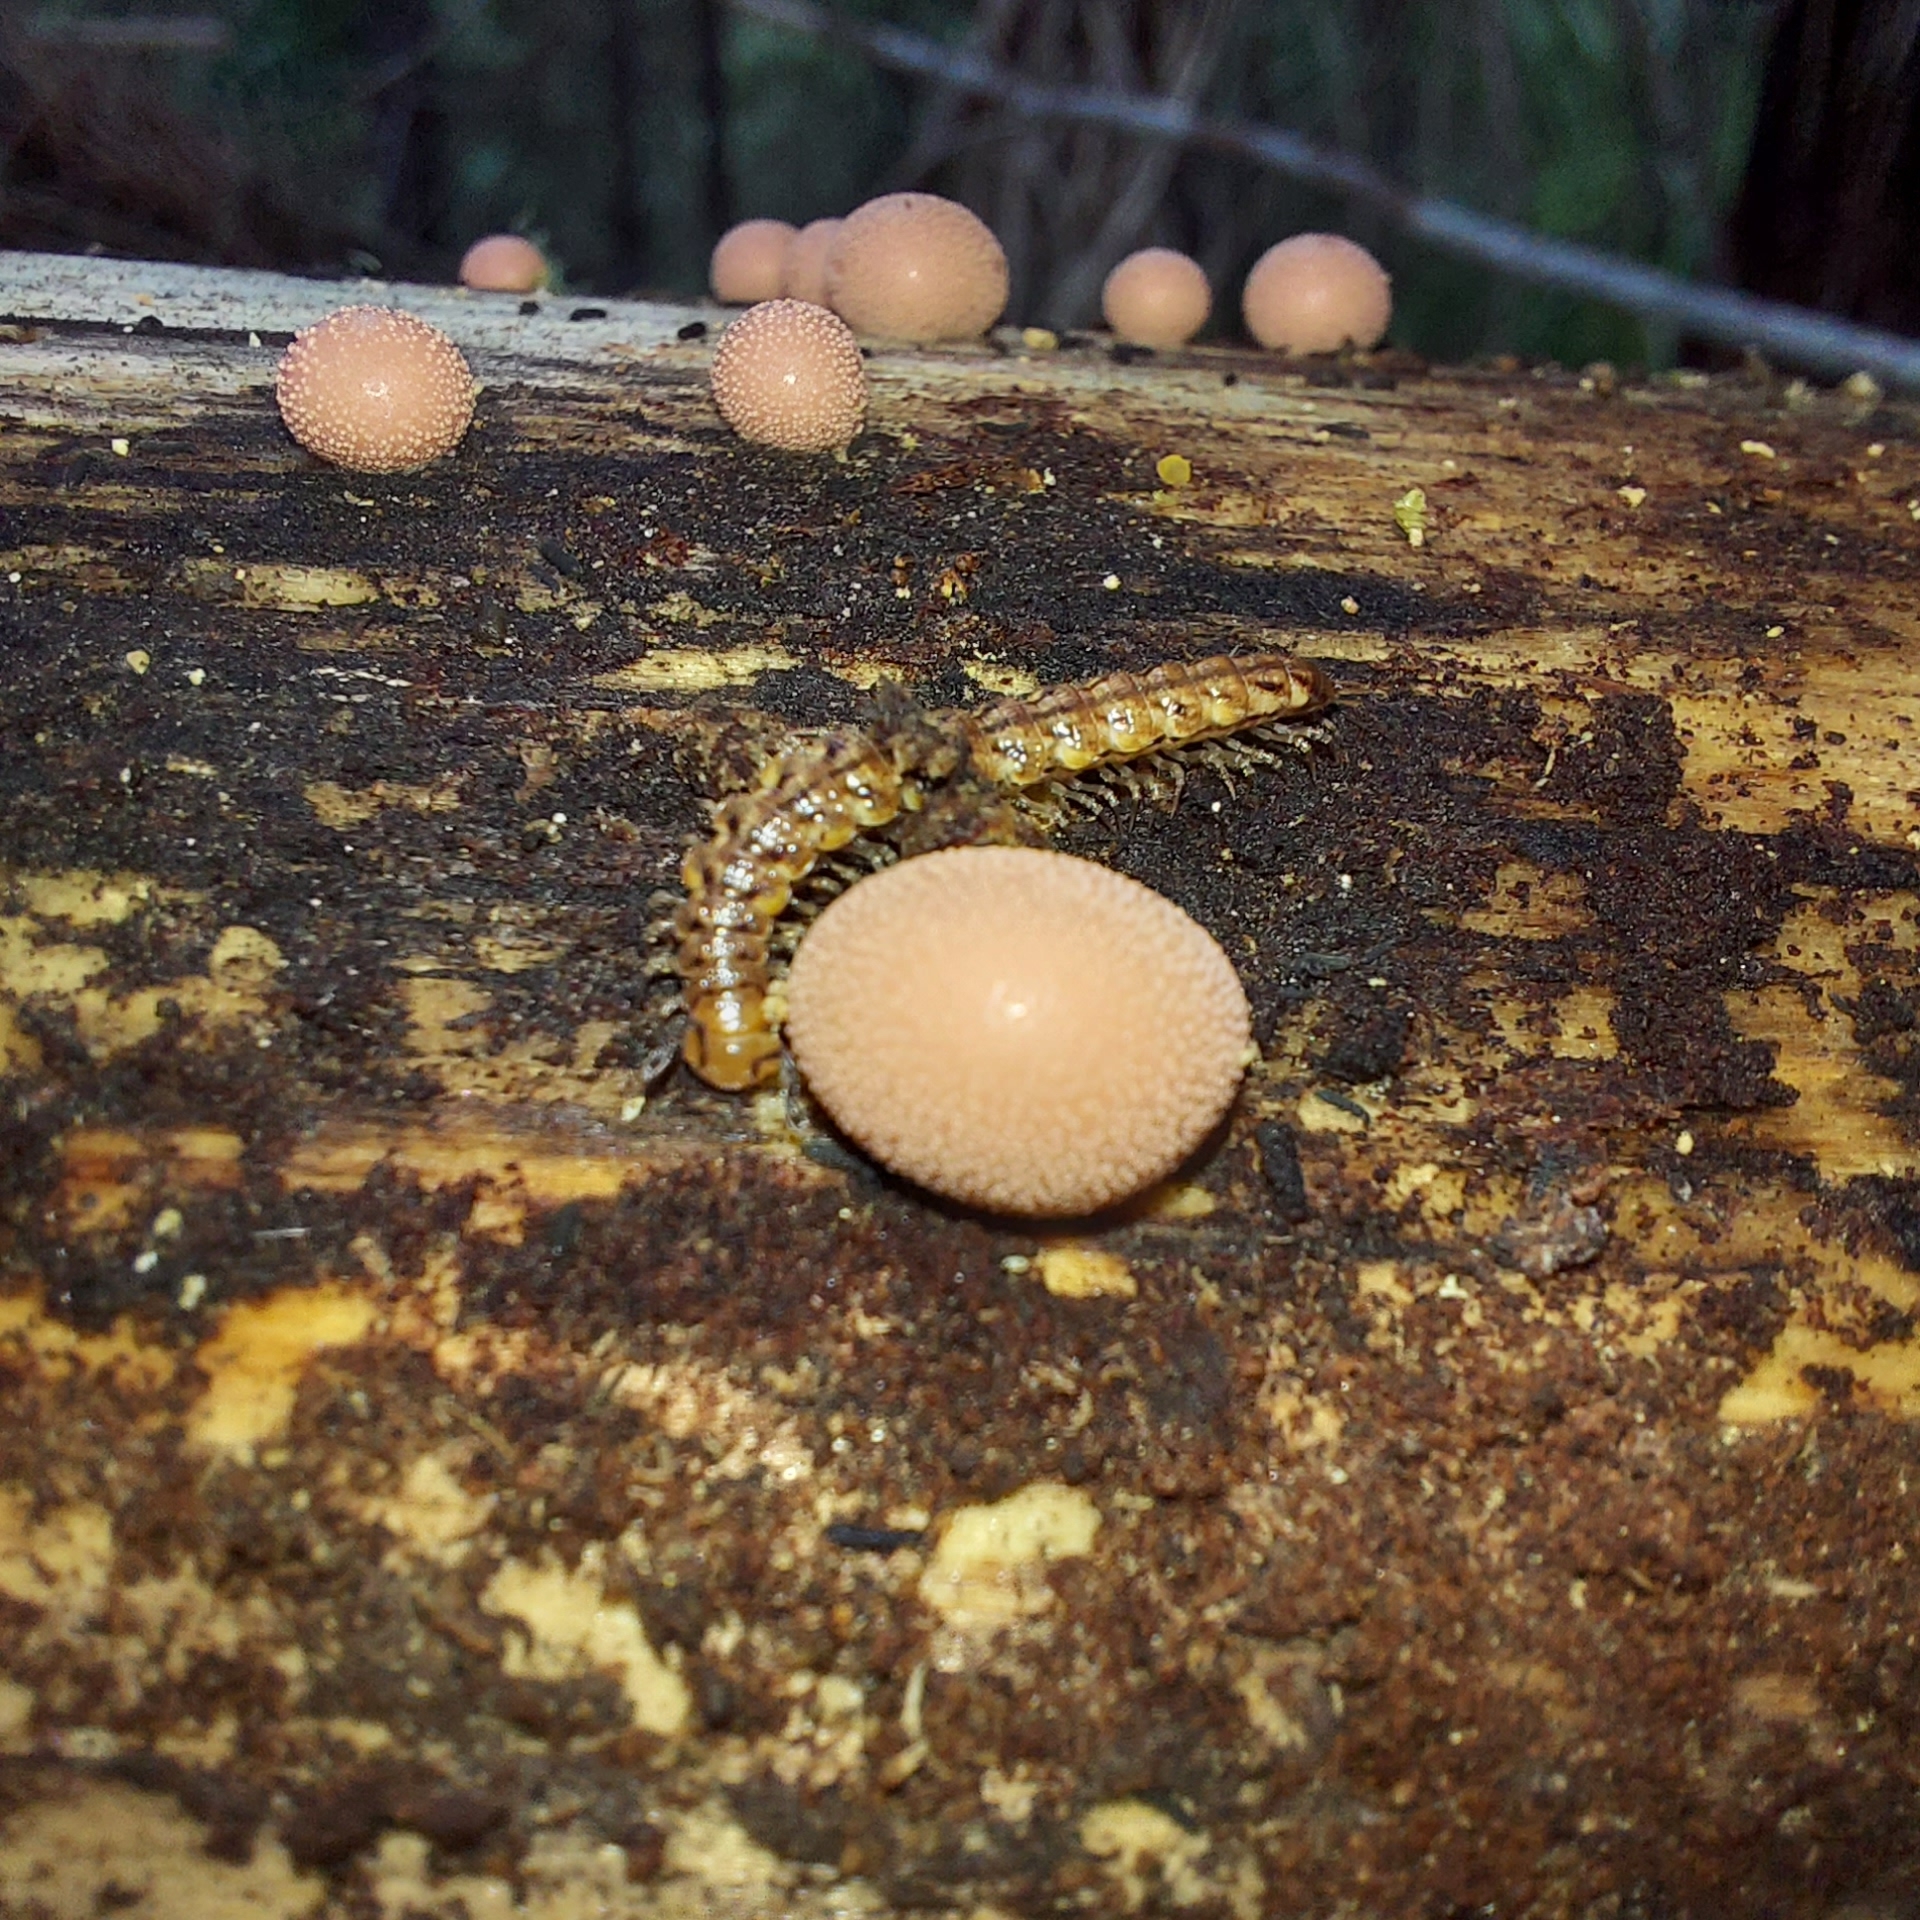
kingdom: Protozoa
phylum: Mycetozoa
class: Myxomycetes
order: Cribrariales
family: Tubiferaceae
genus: Lycogala
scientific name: Lycogala epidendrum
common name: Wolf's milk
